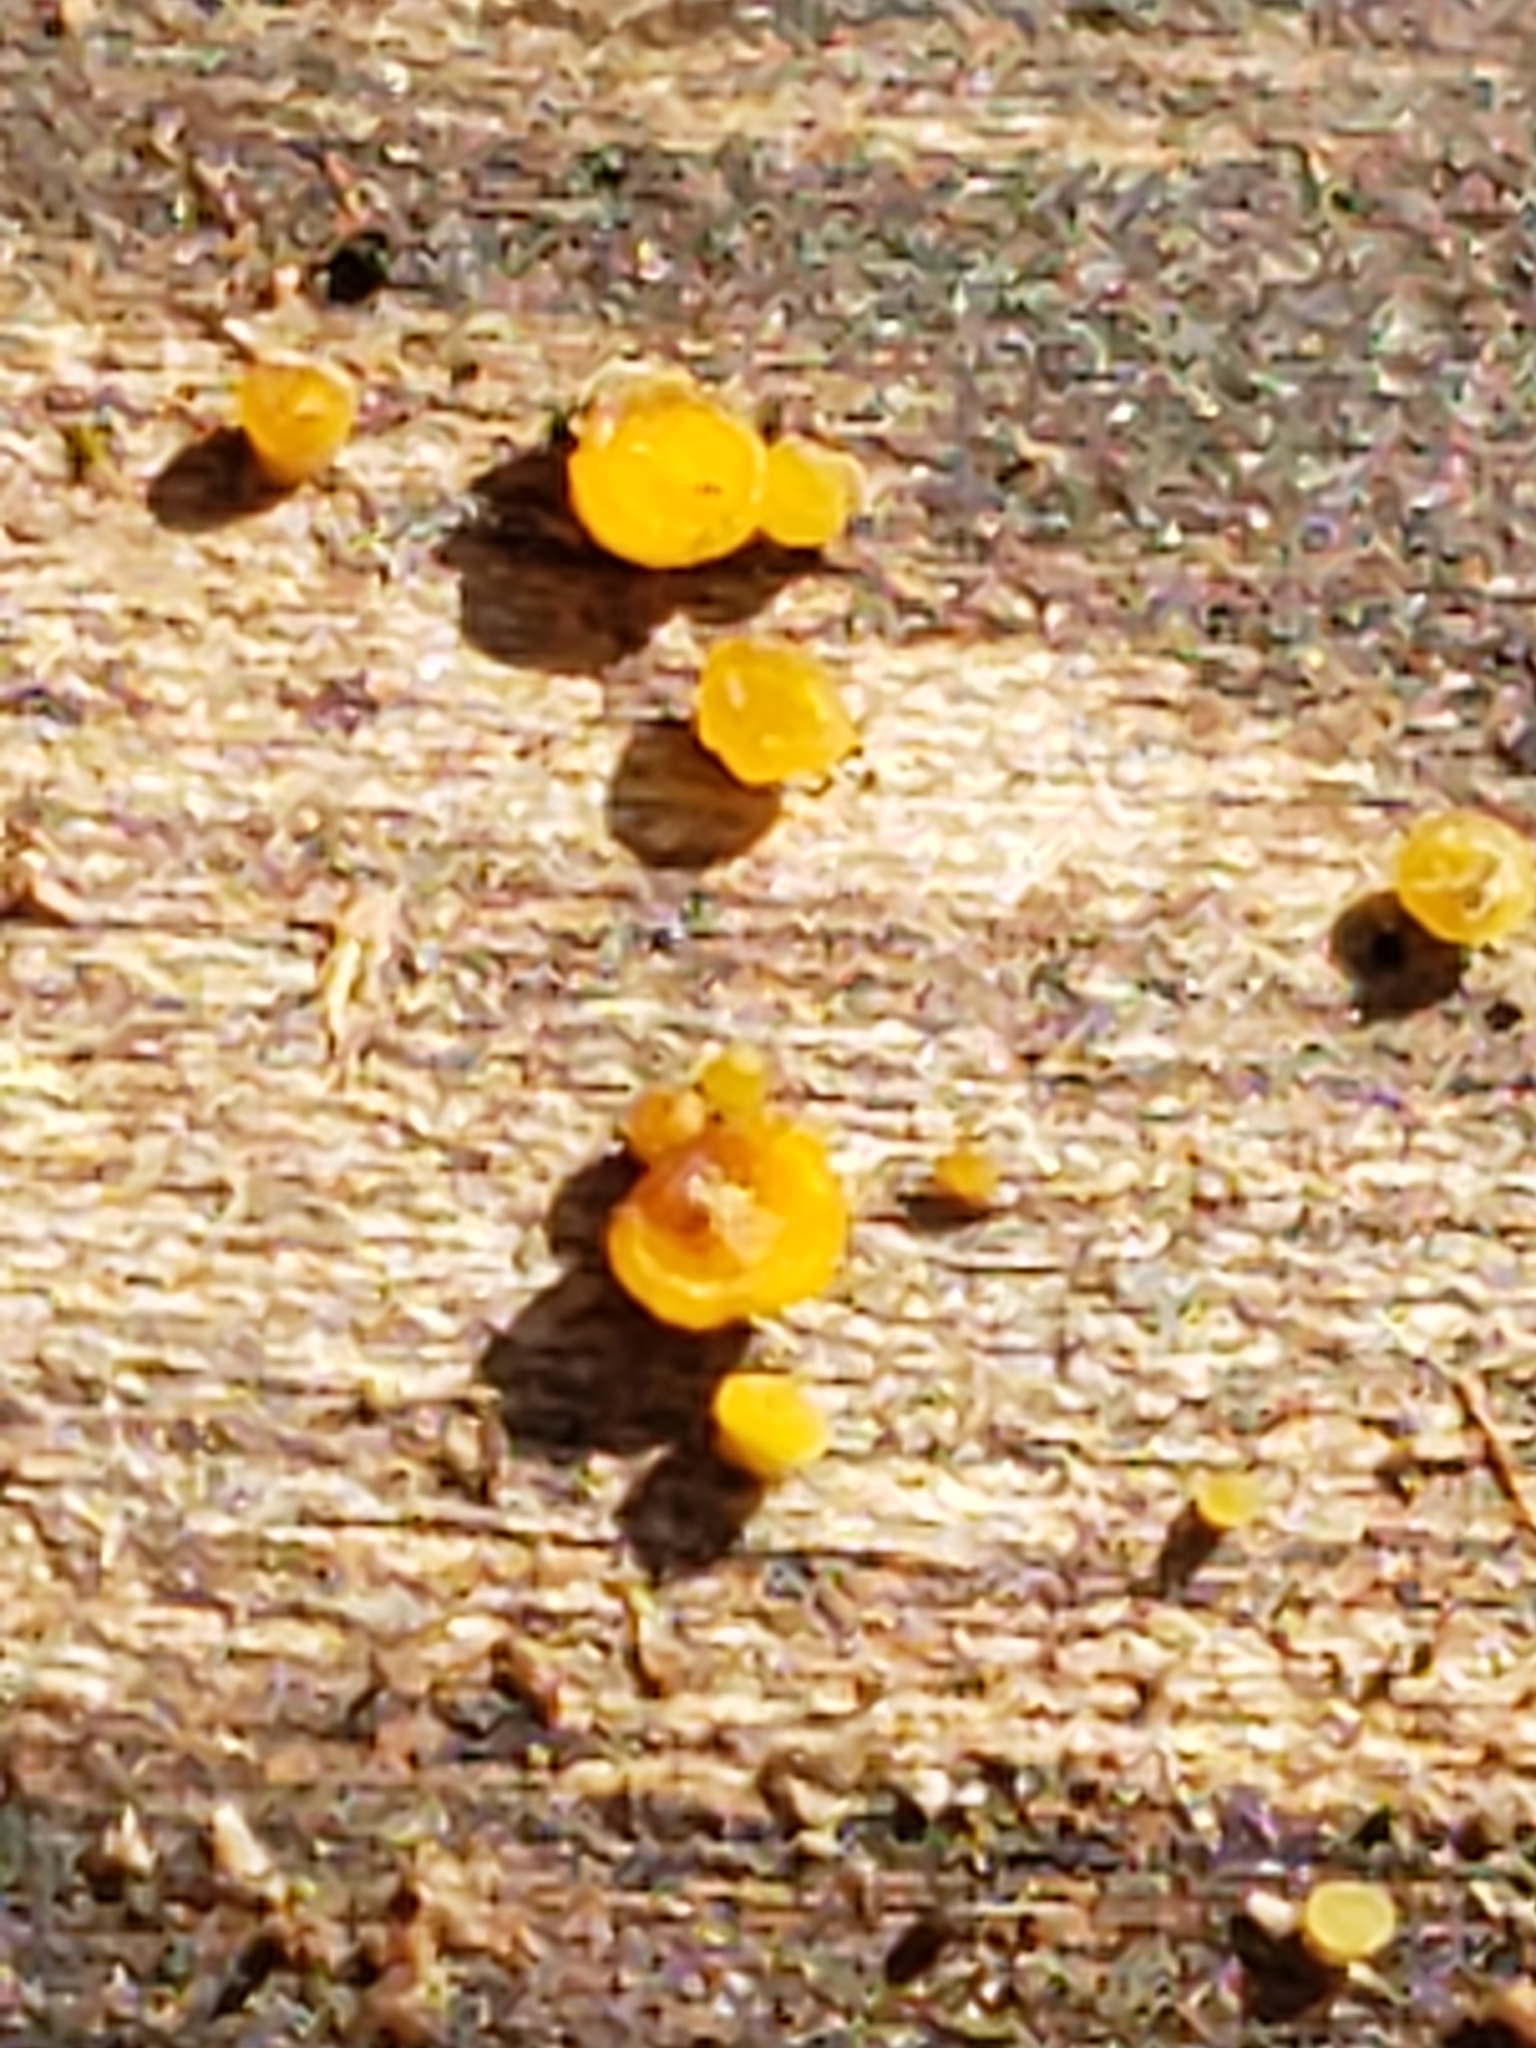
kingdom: Fungi
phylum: Ascomycota
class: Leotiomycetes
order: Helotiales
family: Pezizellaceae
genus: Calycina
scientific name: Calycina citrina
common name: Yellow fairy cups
